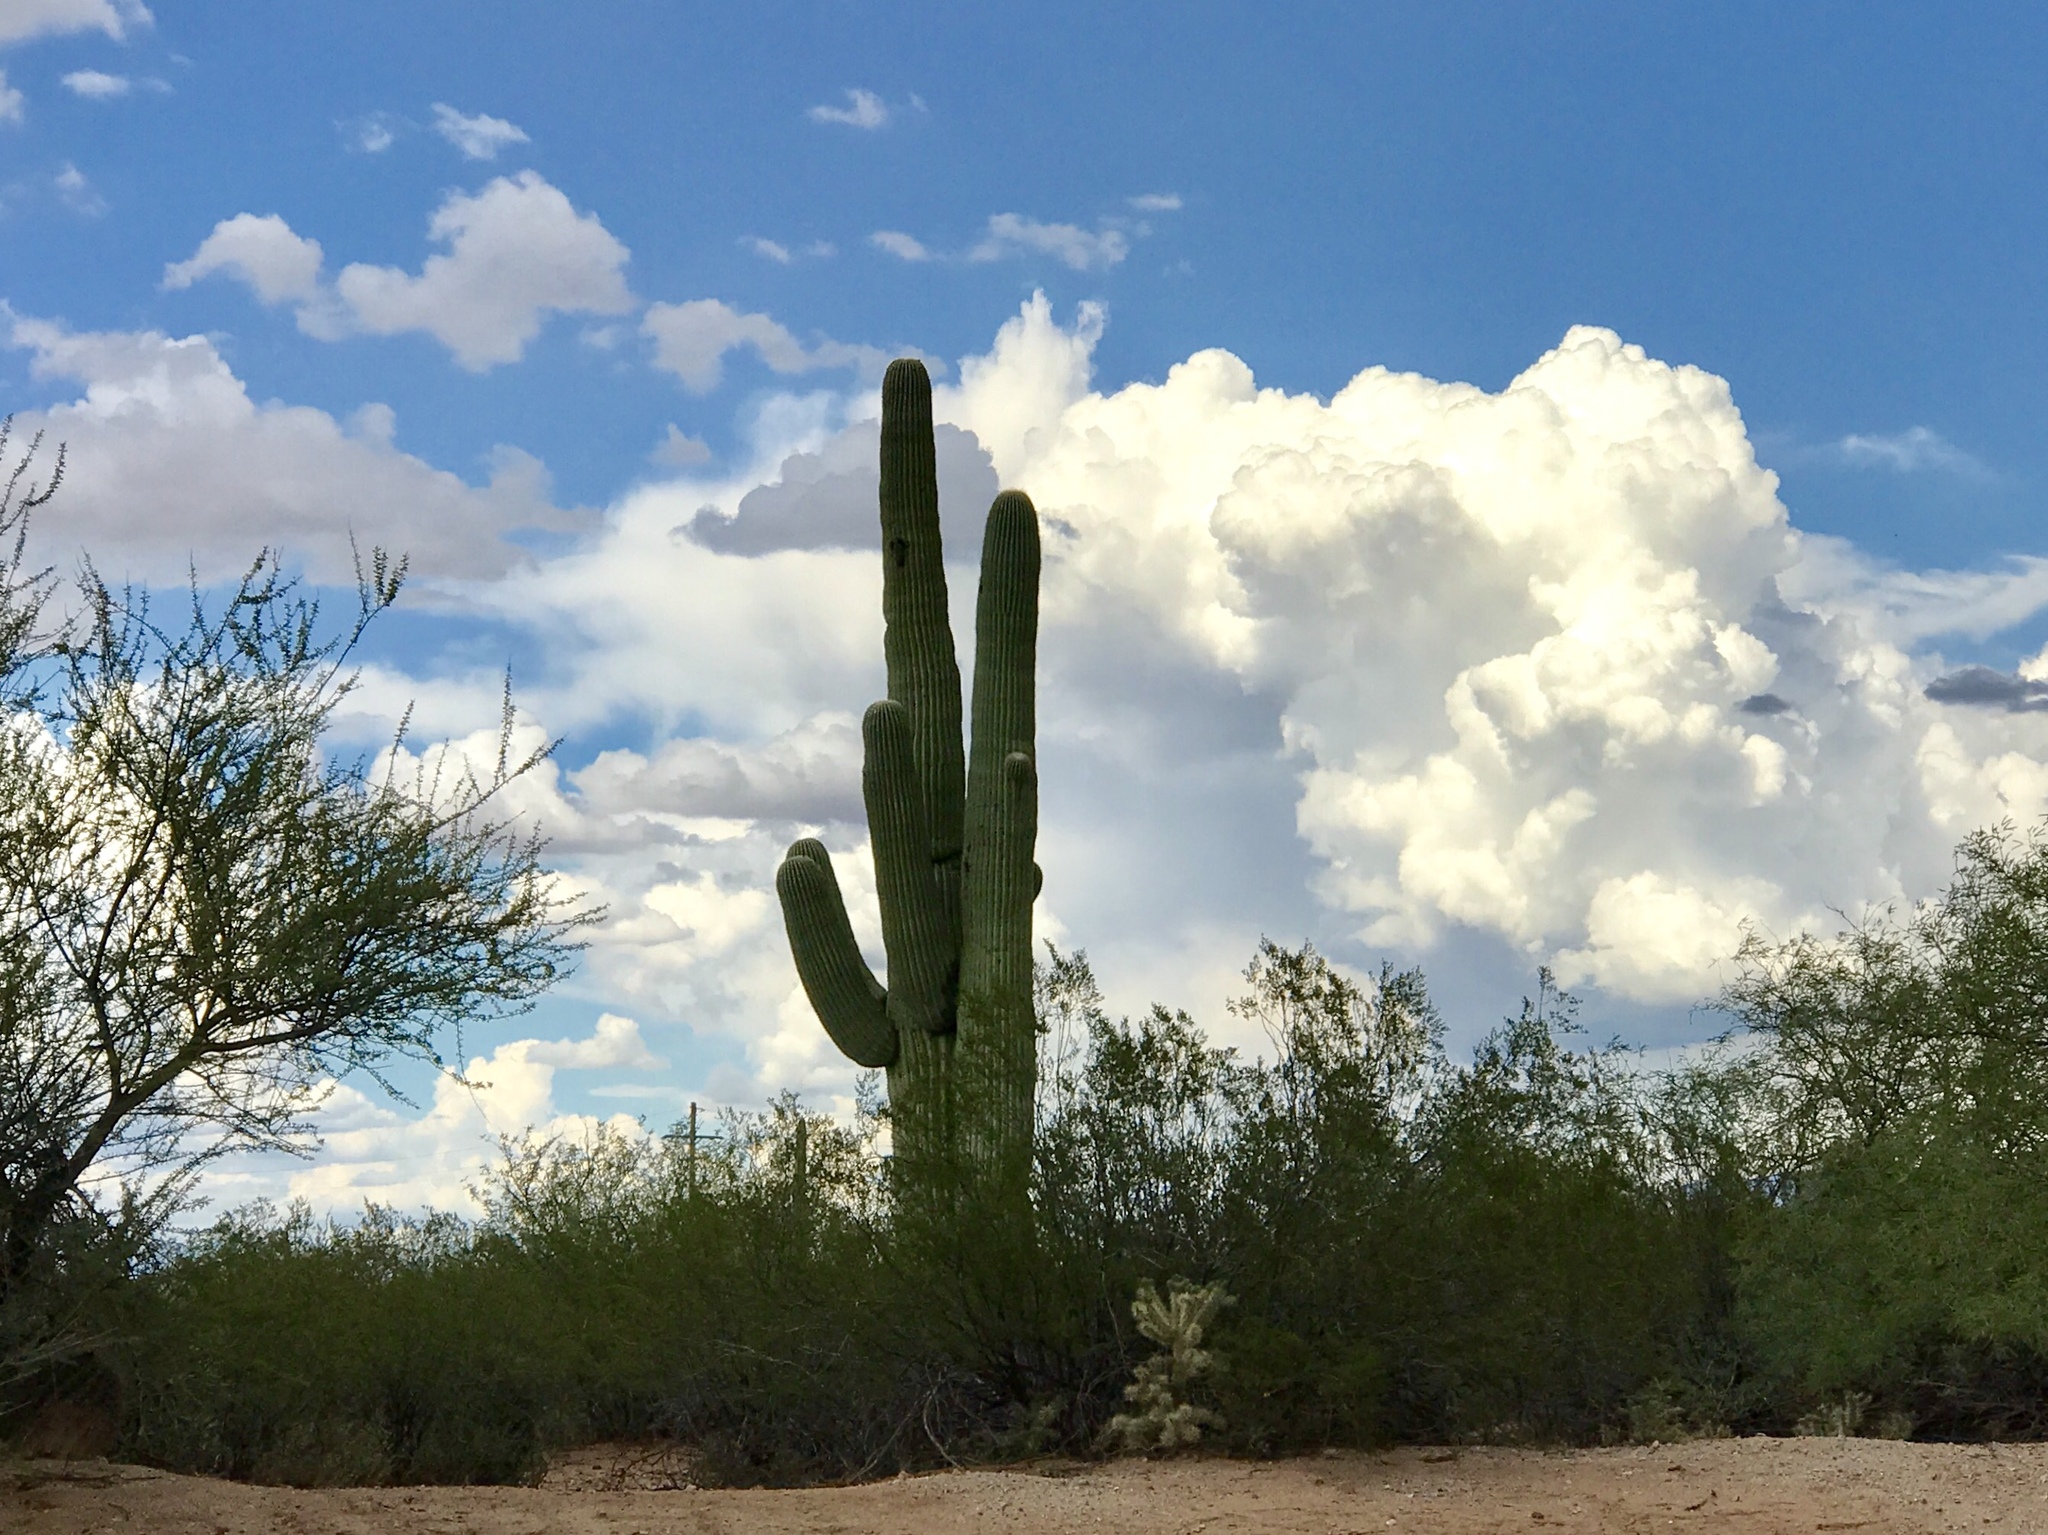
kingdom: Plantae
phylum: Tracheophyta
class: Magnoliopsida
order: Caryophyllales
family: Cactaceae
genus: Carnegiea
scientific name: Carnegiea gigantea
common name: Saguaro
